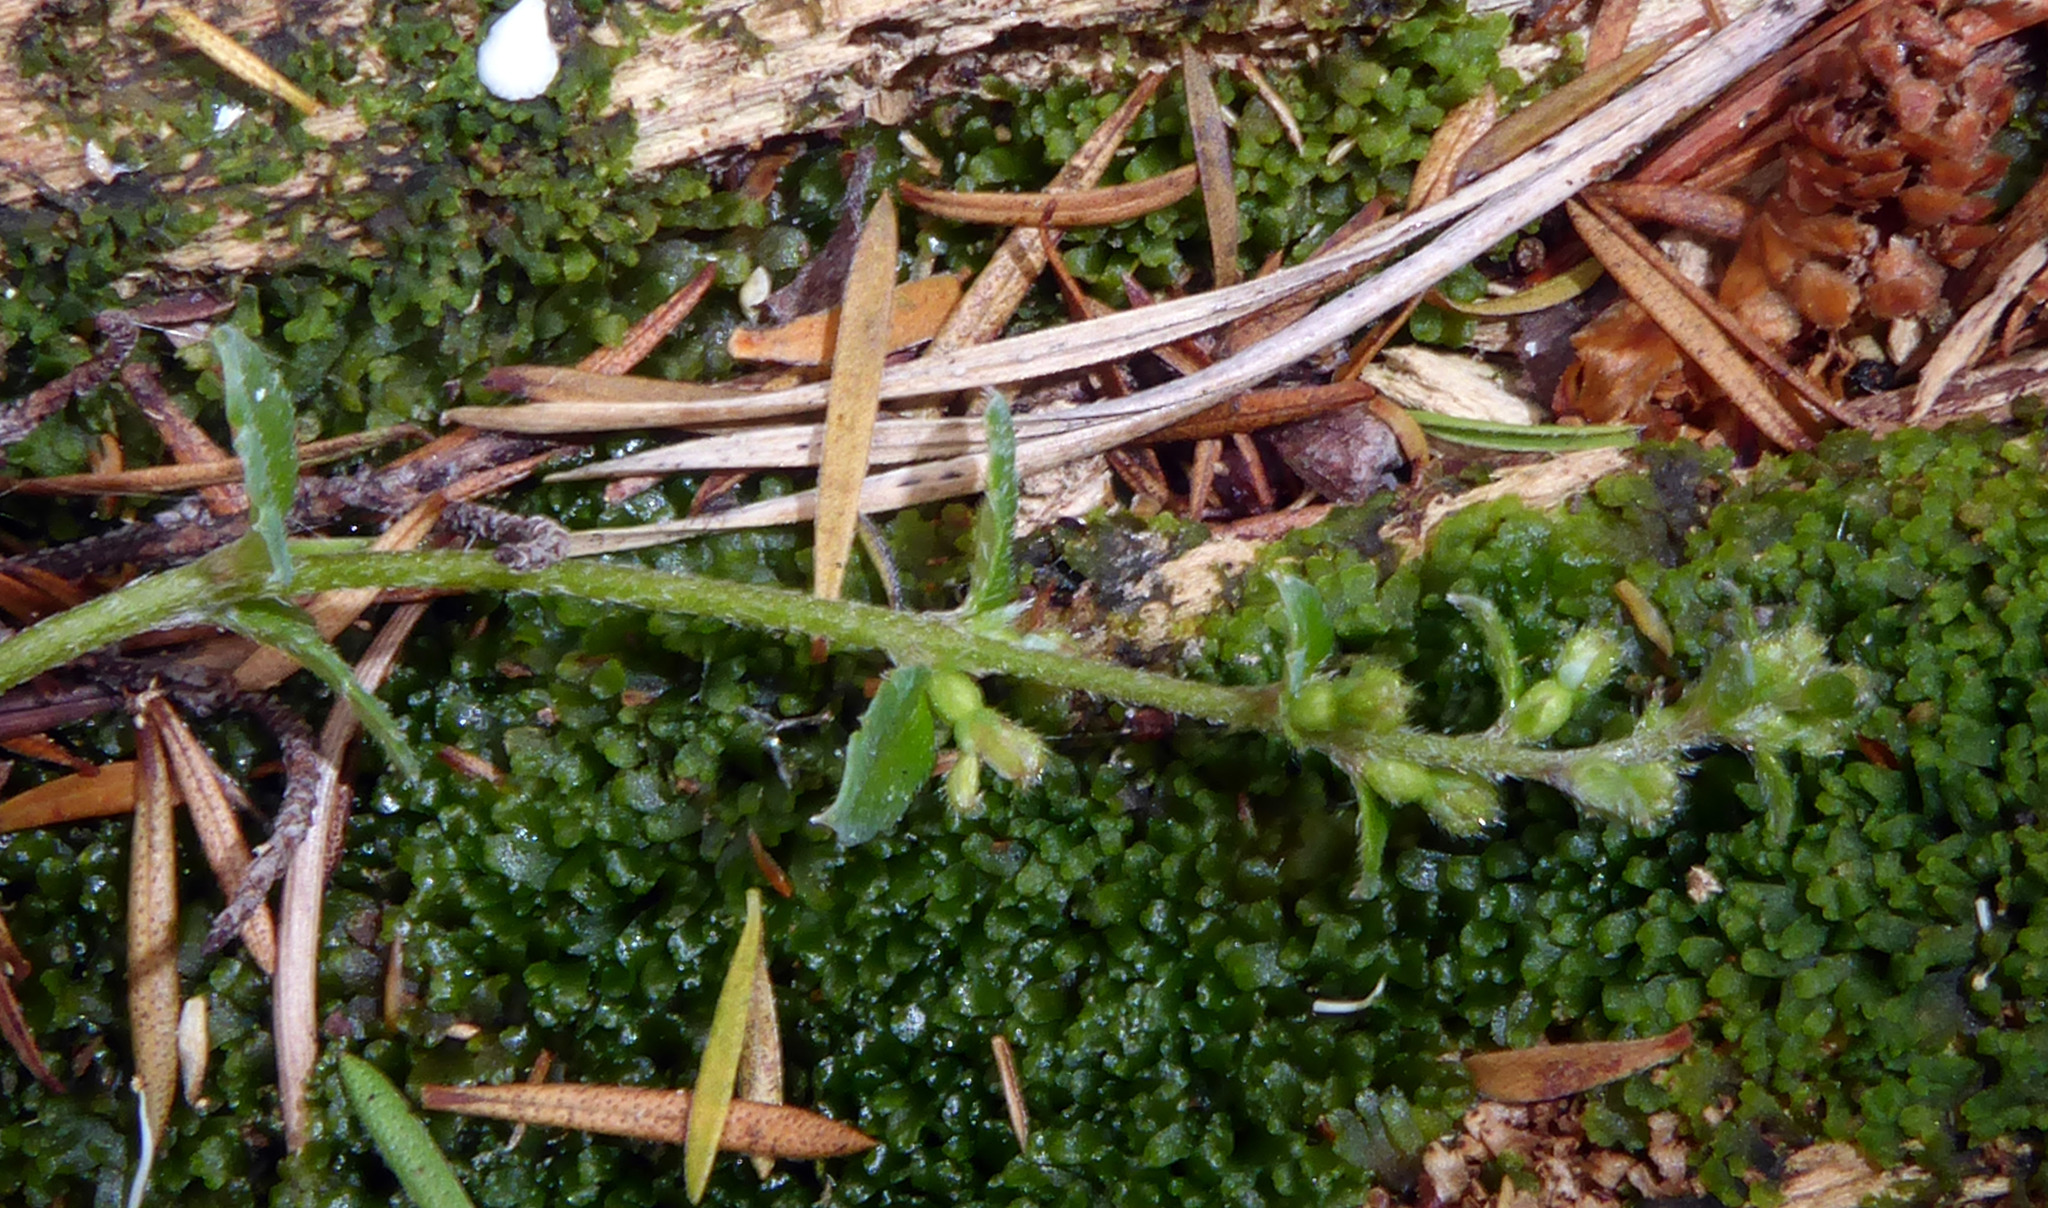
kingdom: Plantae
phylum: Tracheophyta
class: Magnoliopsida
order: Saxifragales
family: Haloragaceae
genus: Gonocarpus
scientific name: Gonocarpus incanus
